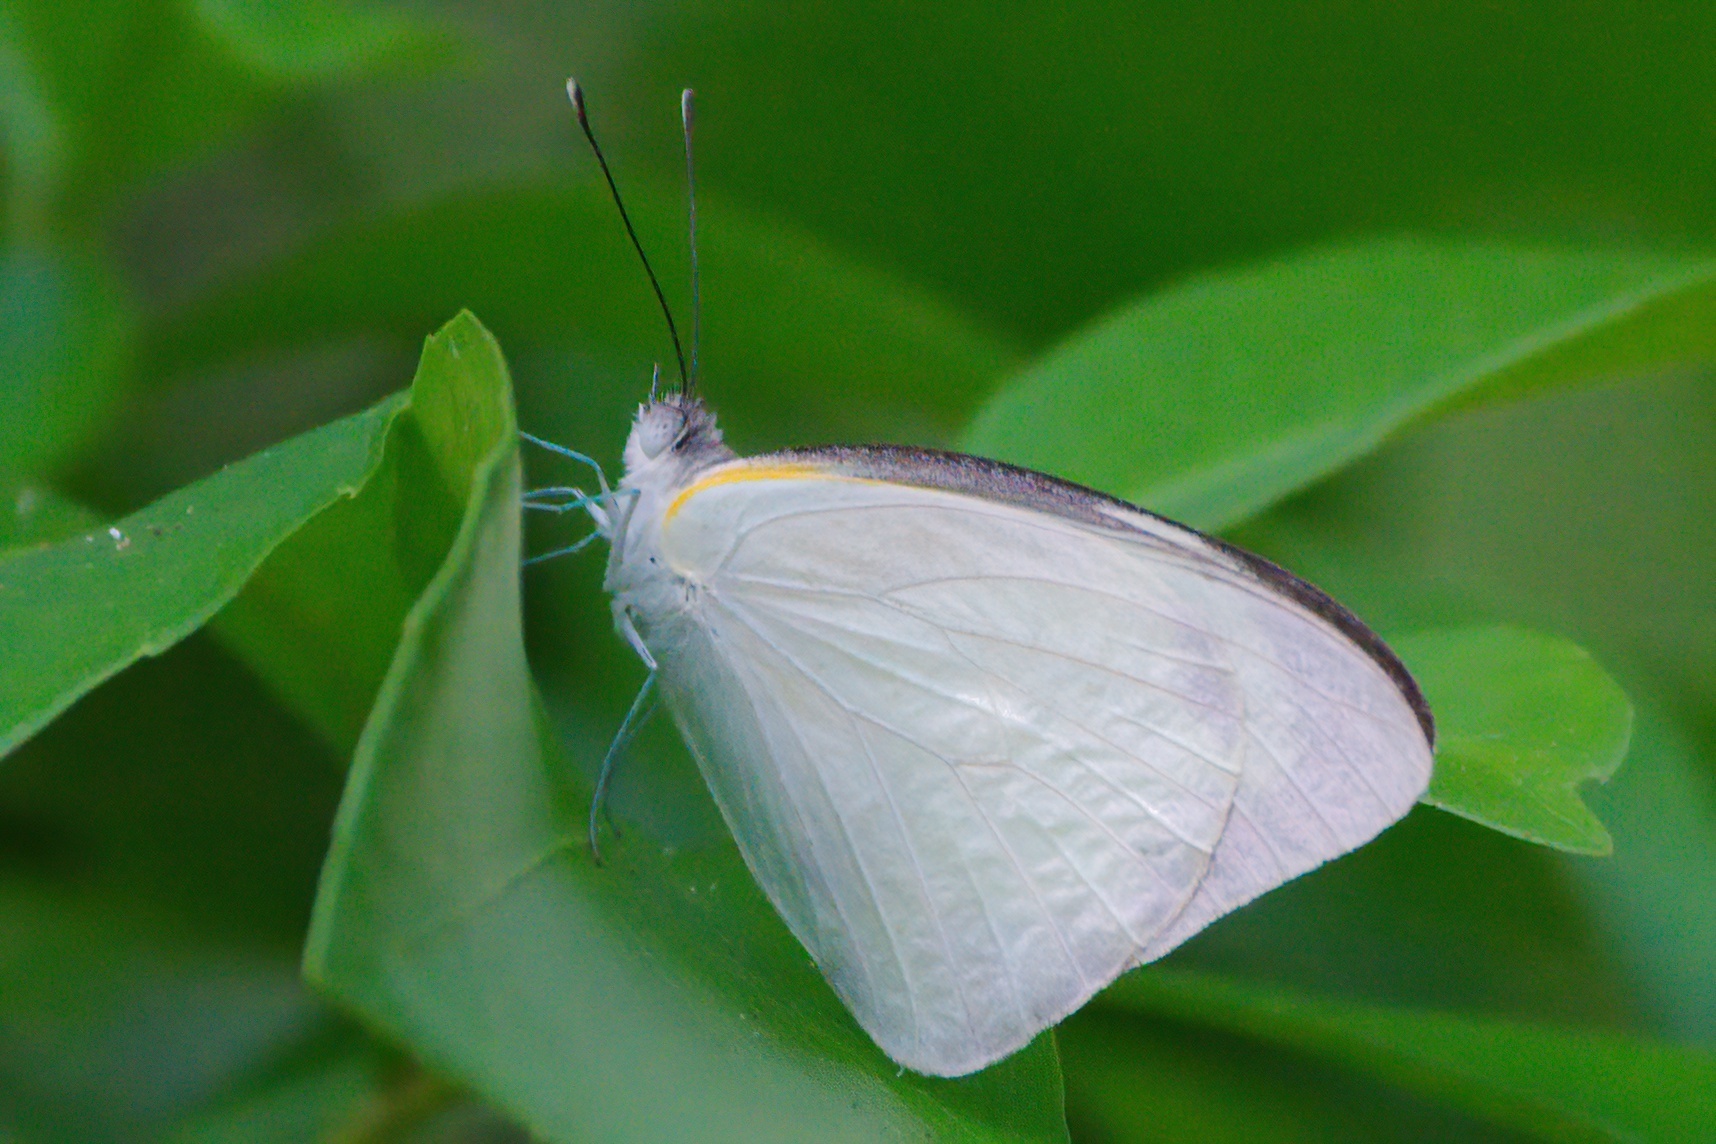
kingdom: Animalia
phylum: Arthropoda
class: Insecta
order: Lepidoptera
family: Pieridae
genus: Glutophrissa
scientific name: Glutophrissa drusilla
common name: Florida white
